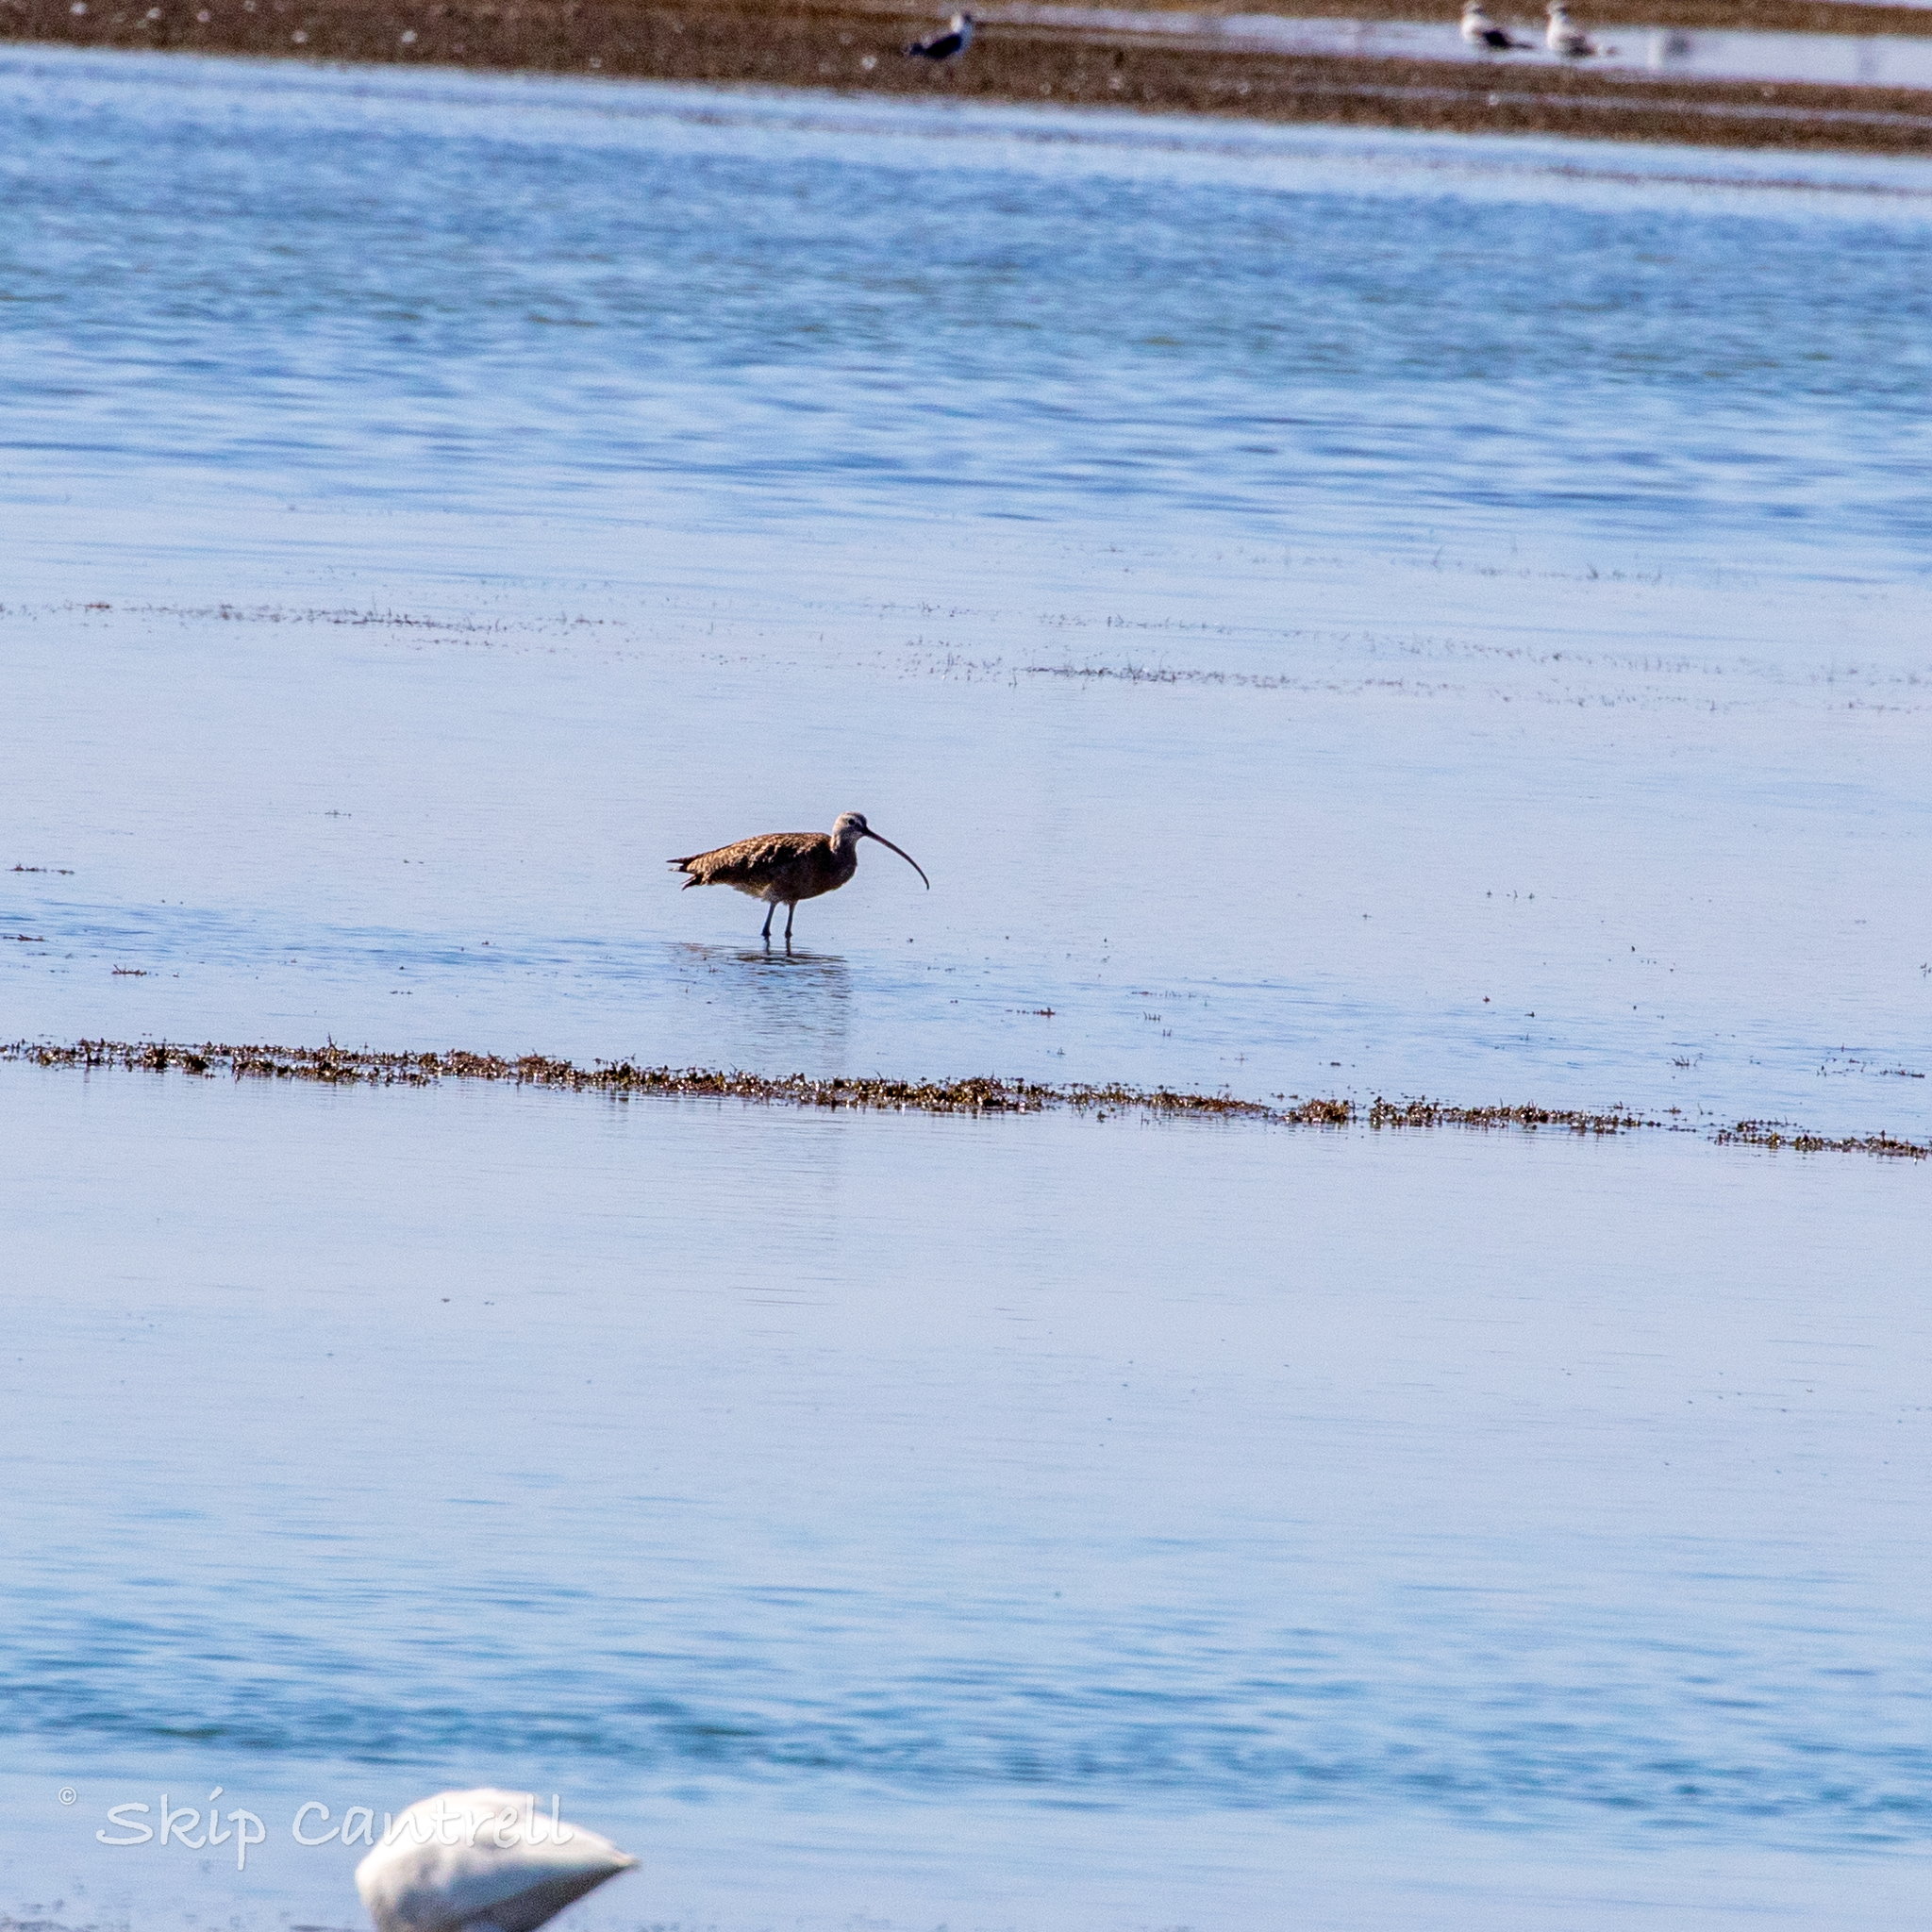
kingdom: Animalia
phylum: Chordata
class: Aves
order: Charadriiformes
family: Scolopacidae
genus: Numenius
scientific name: Numenius americanus
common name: Long-billed curlew
